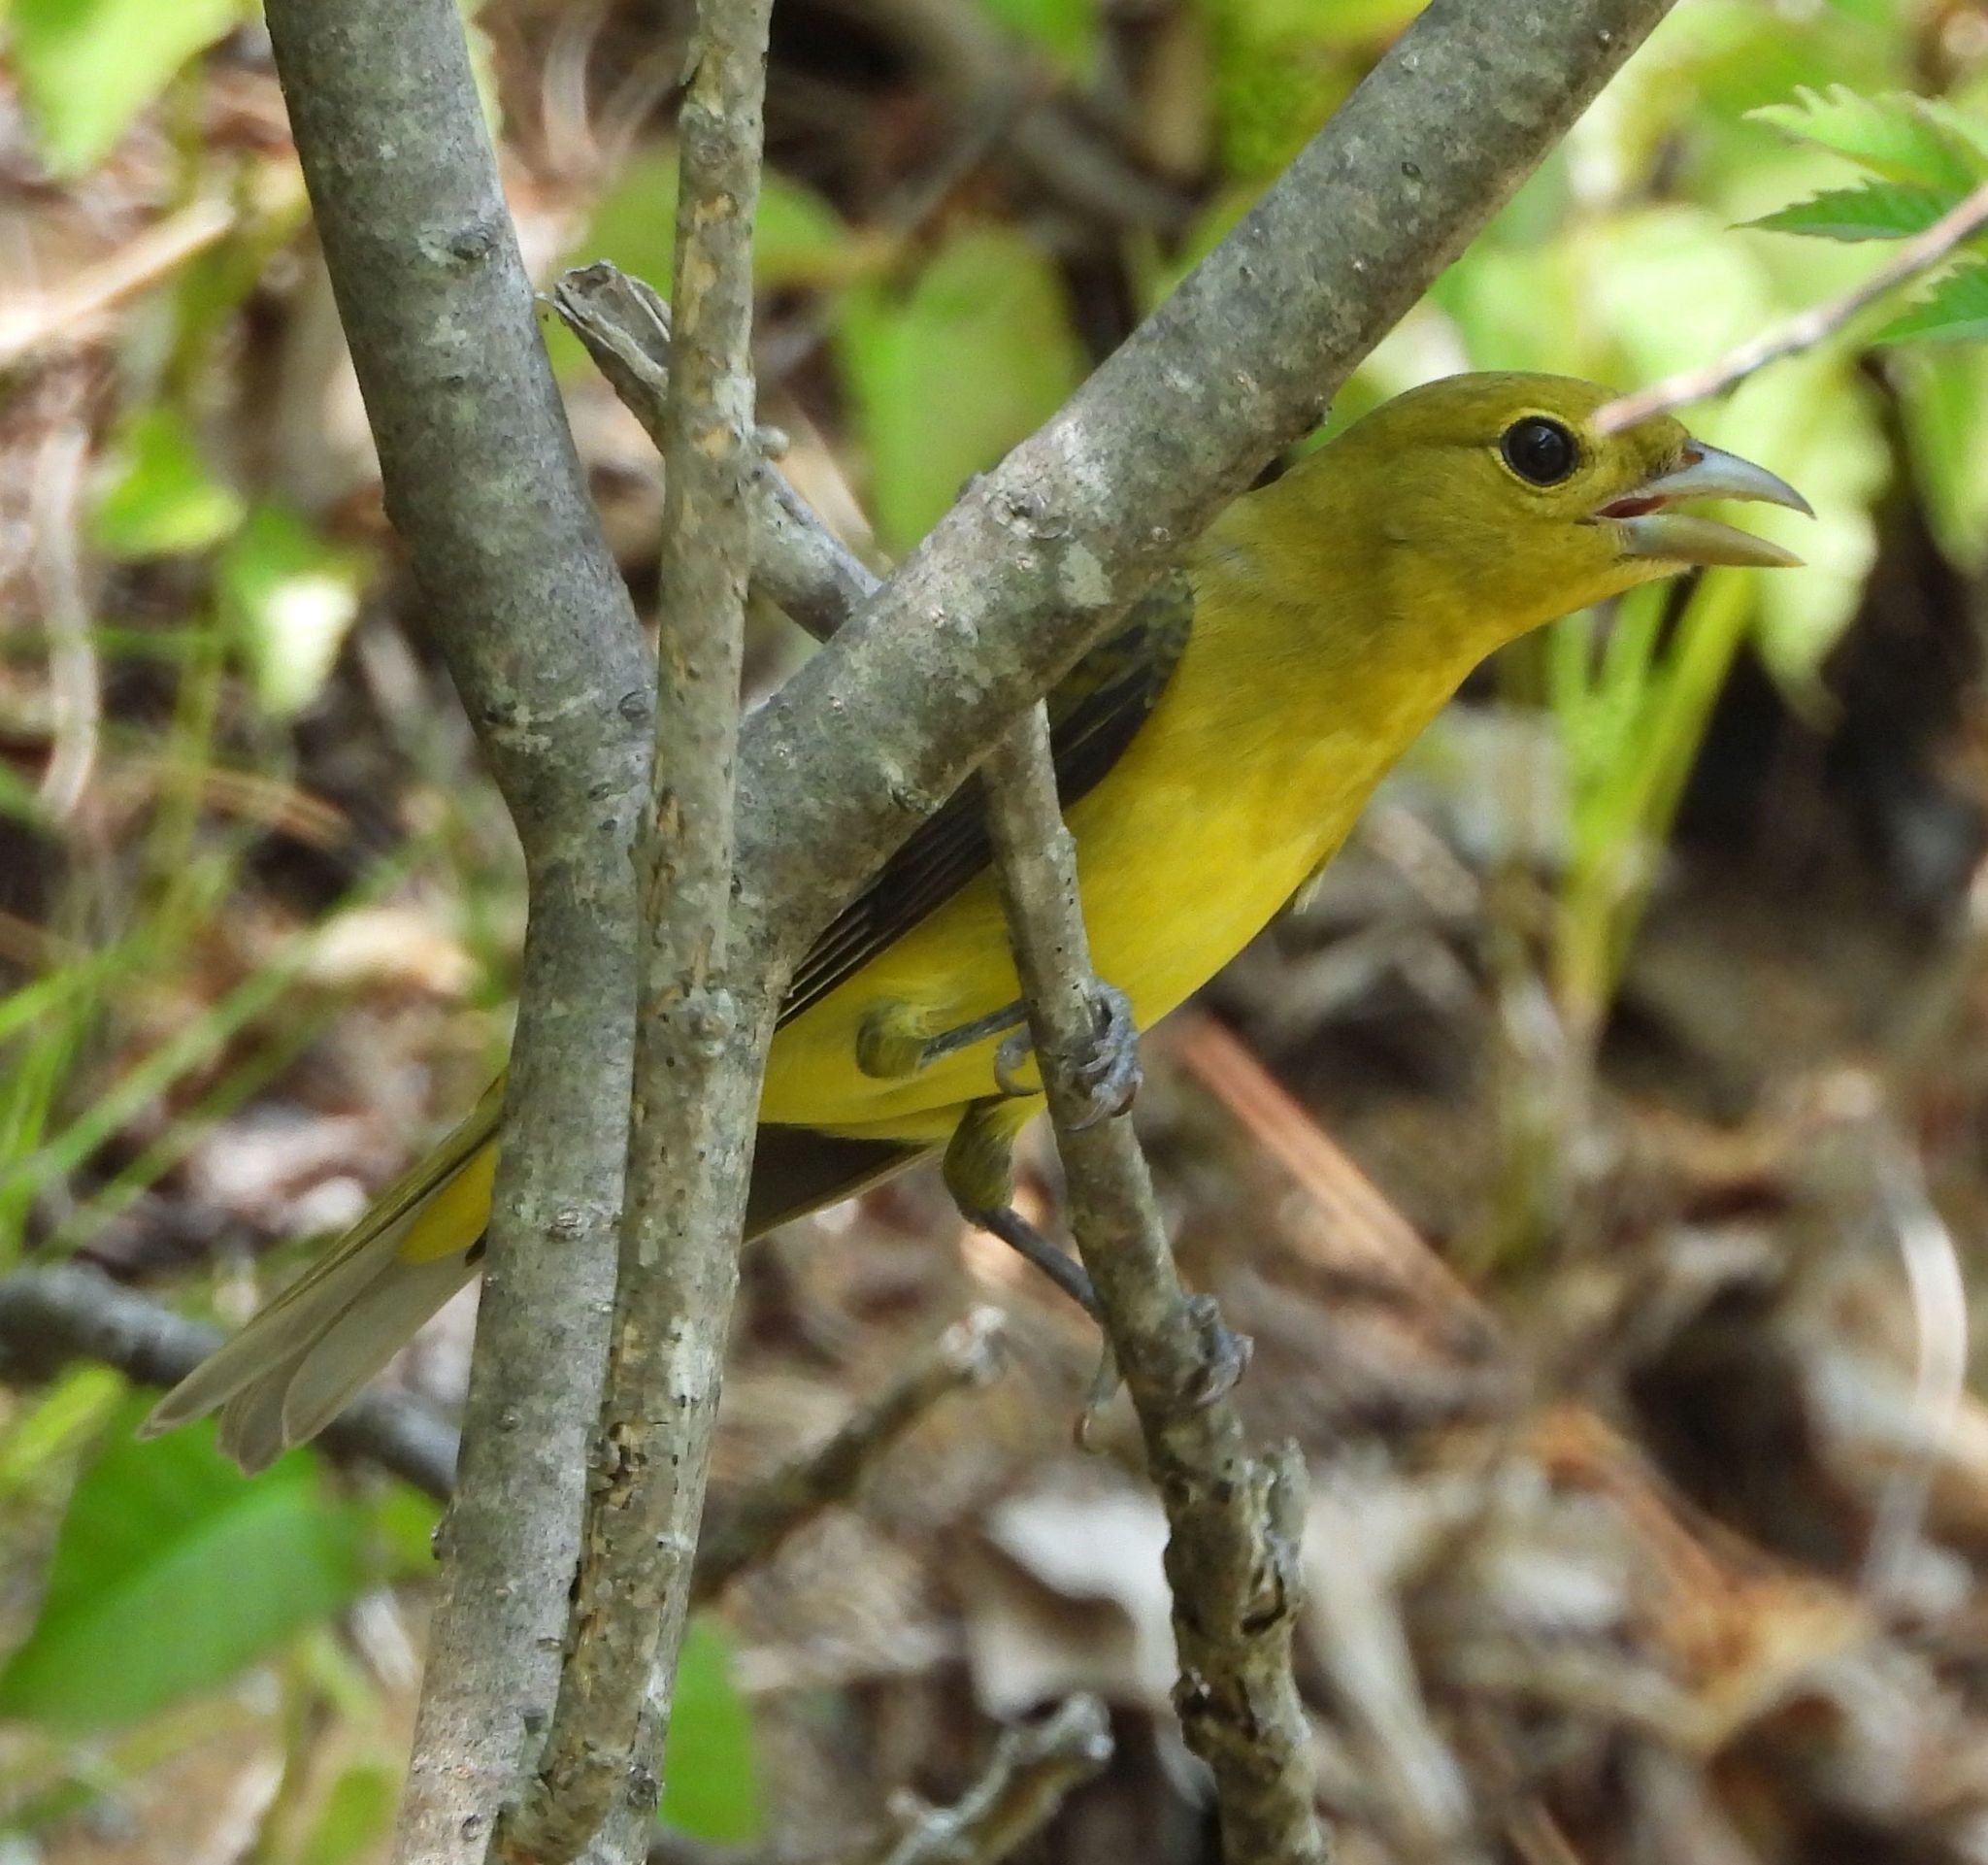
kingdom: Animalia
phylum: Chordata
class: Aves
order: Passeriformes
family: Cardinalidae
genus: Piranga
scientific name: Piranga olivacea
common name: Scarlet tanager
